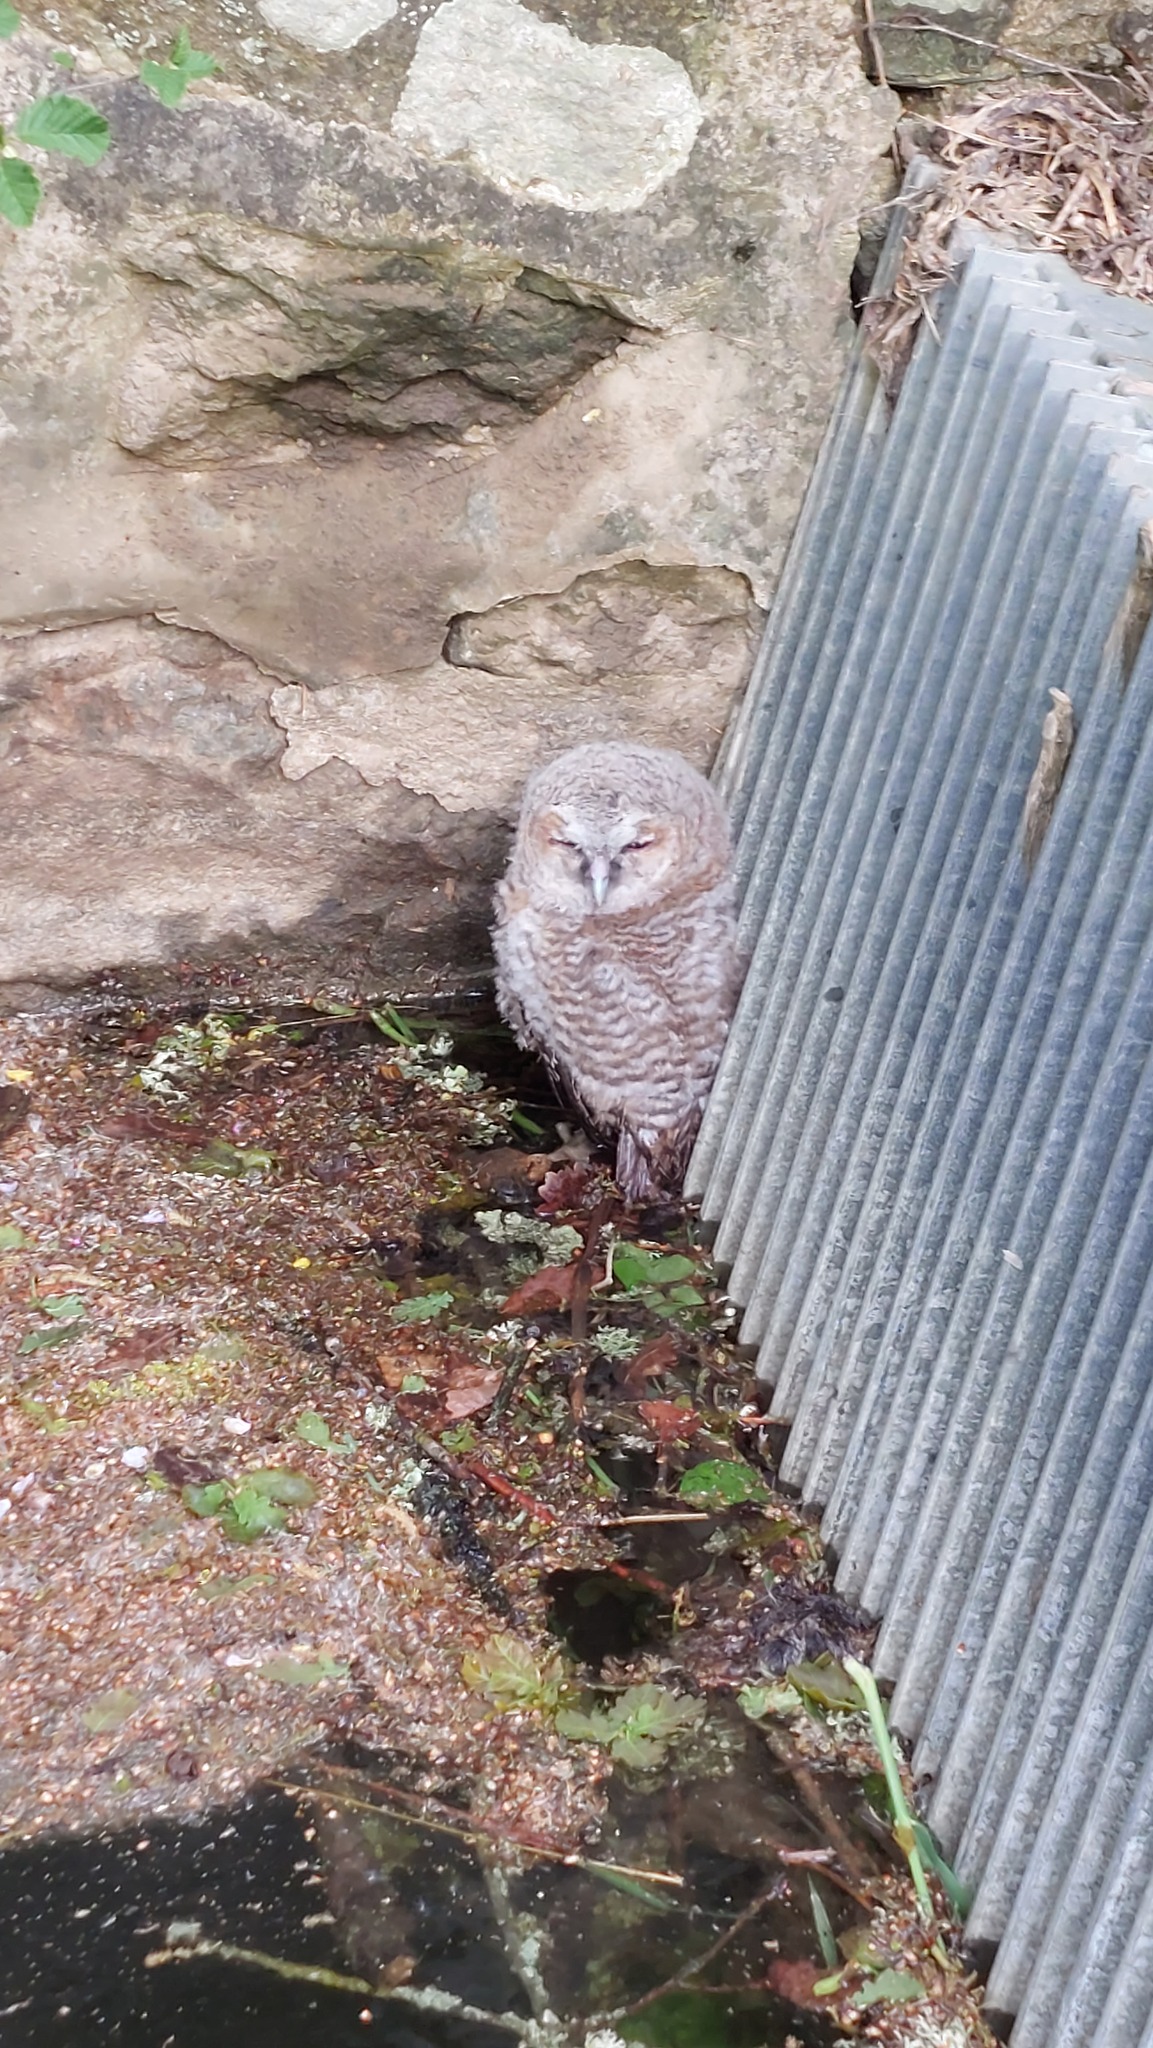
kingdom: Animalia
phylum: Chordata
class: Aves
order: Strigiformes
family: Strigidae
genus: Strix
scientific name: Strix aluco
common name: Tawny owl
